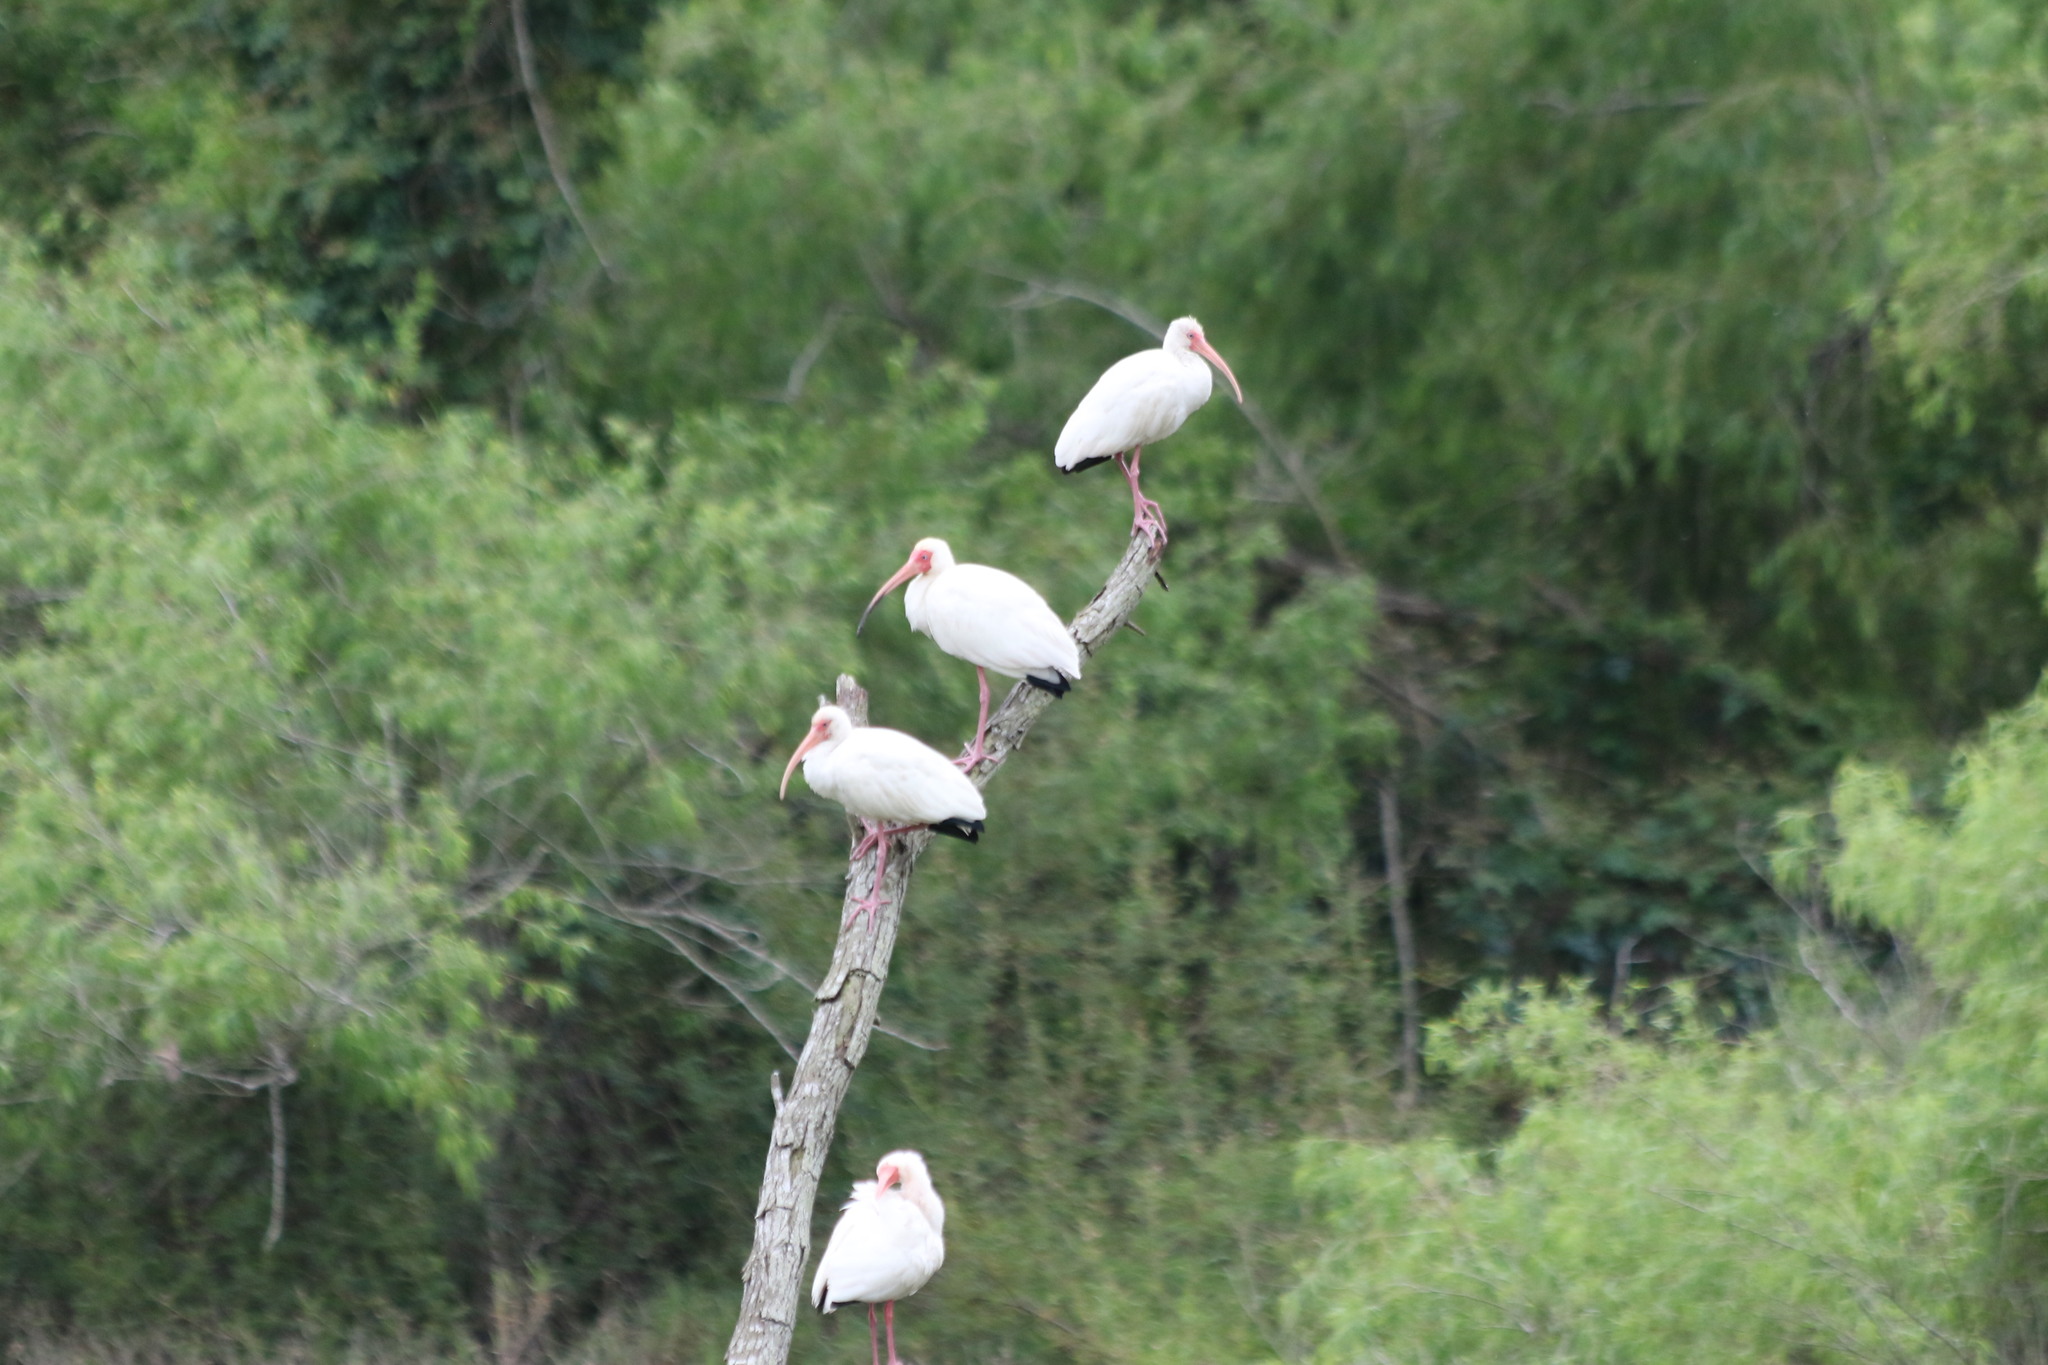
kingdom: Animalia
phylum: Chordata
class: Aves
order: Pelecaniformes
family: Threskiornithidae
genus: Eudocimus
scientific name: Eudocimus albus
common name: White ibis
